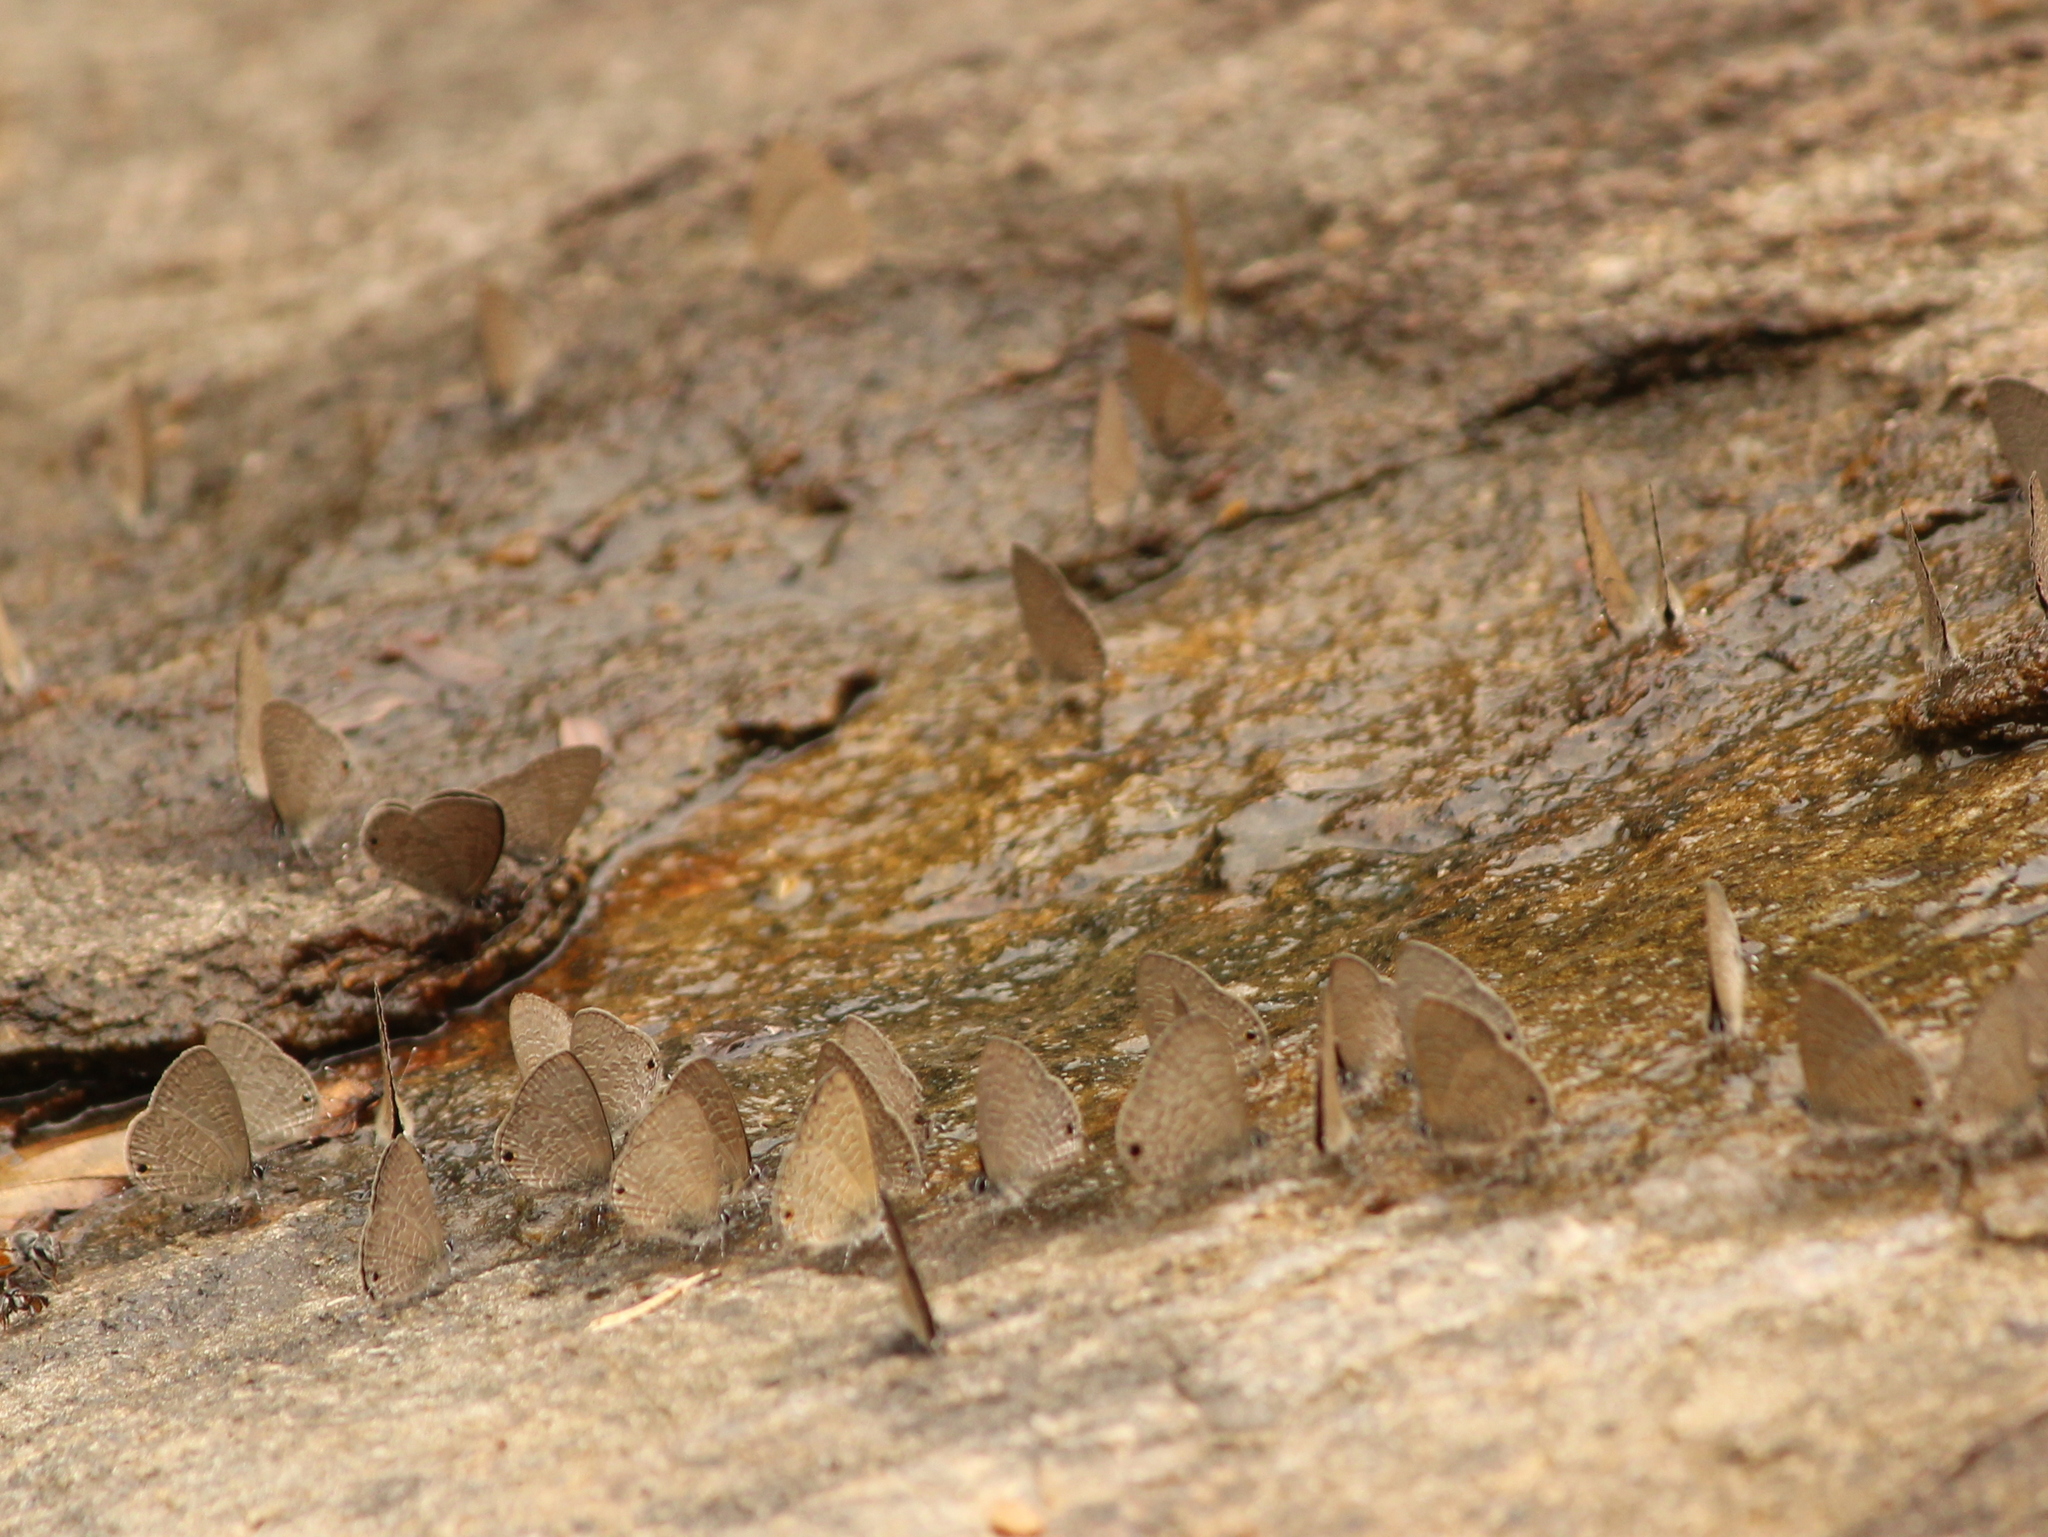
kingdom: Animalia
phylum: Arthropoda
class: Insecta
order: Lepidoptera
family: Lycaenidae
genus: Prosotas
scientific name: Prosotas dubiosa
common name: Tailless lineblue
